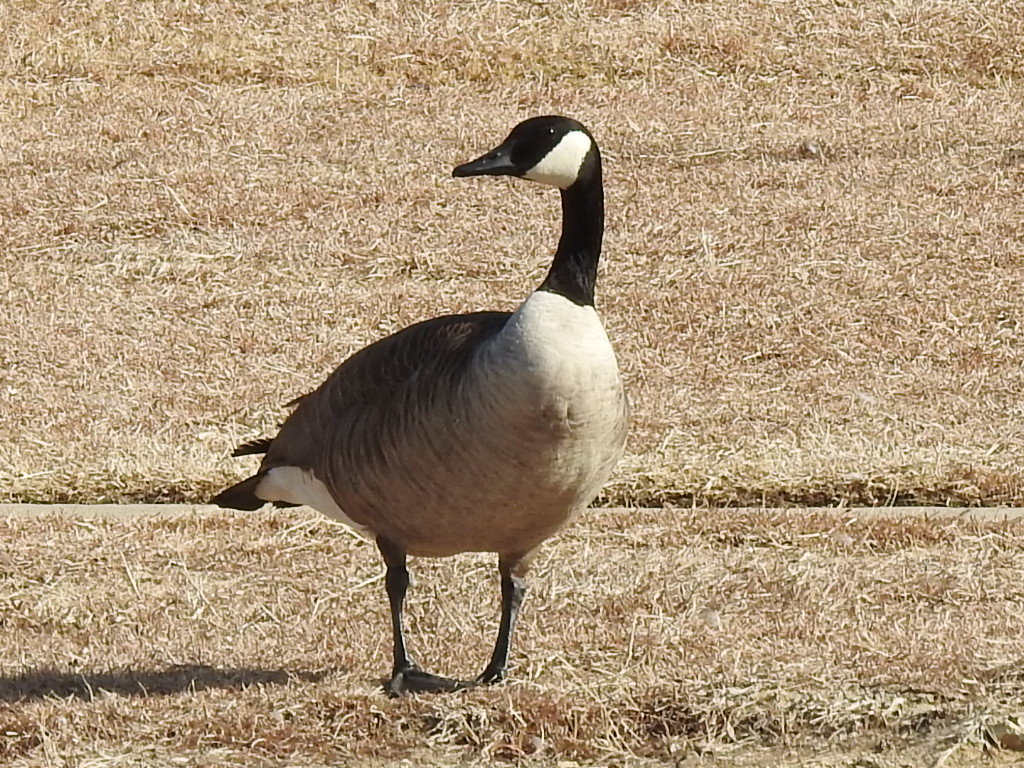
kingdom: Animalia
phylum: Chordata
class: Aves
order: Anseriformes
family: Anatidae
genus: Branta
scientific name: Branta canadensis
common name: Canada goose
